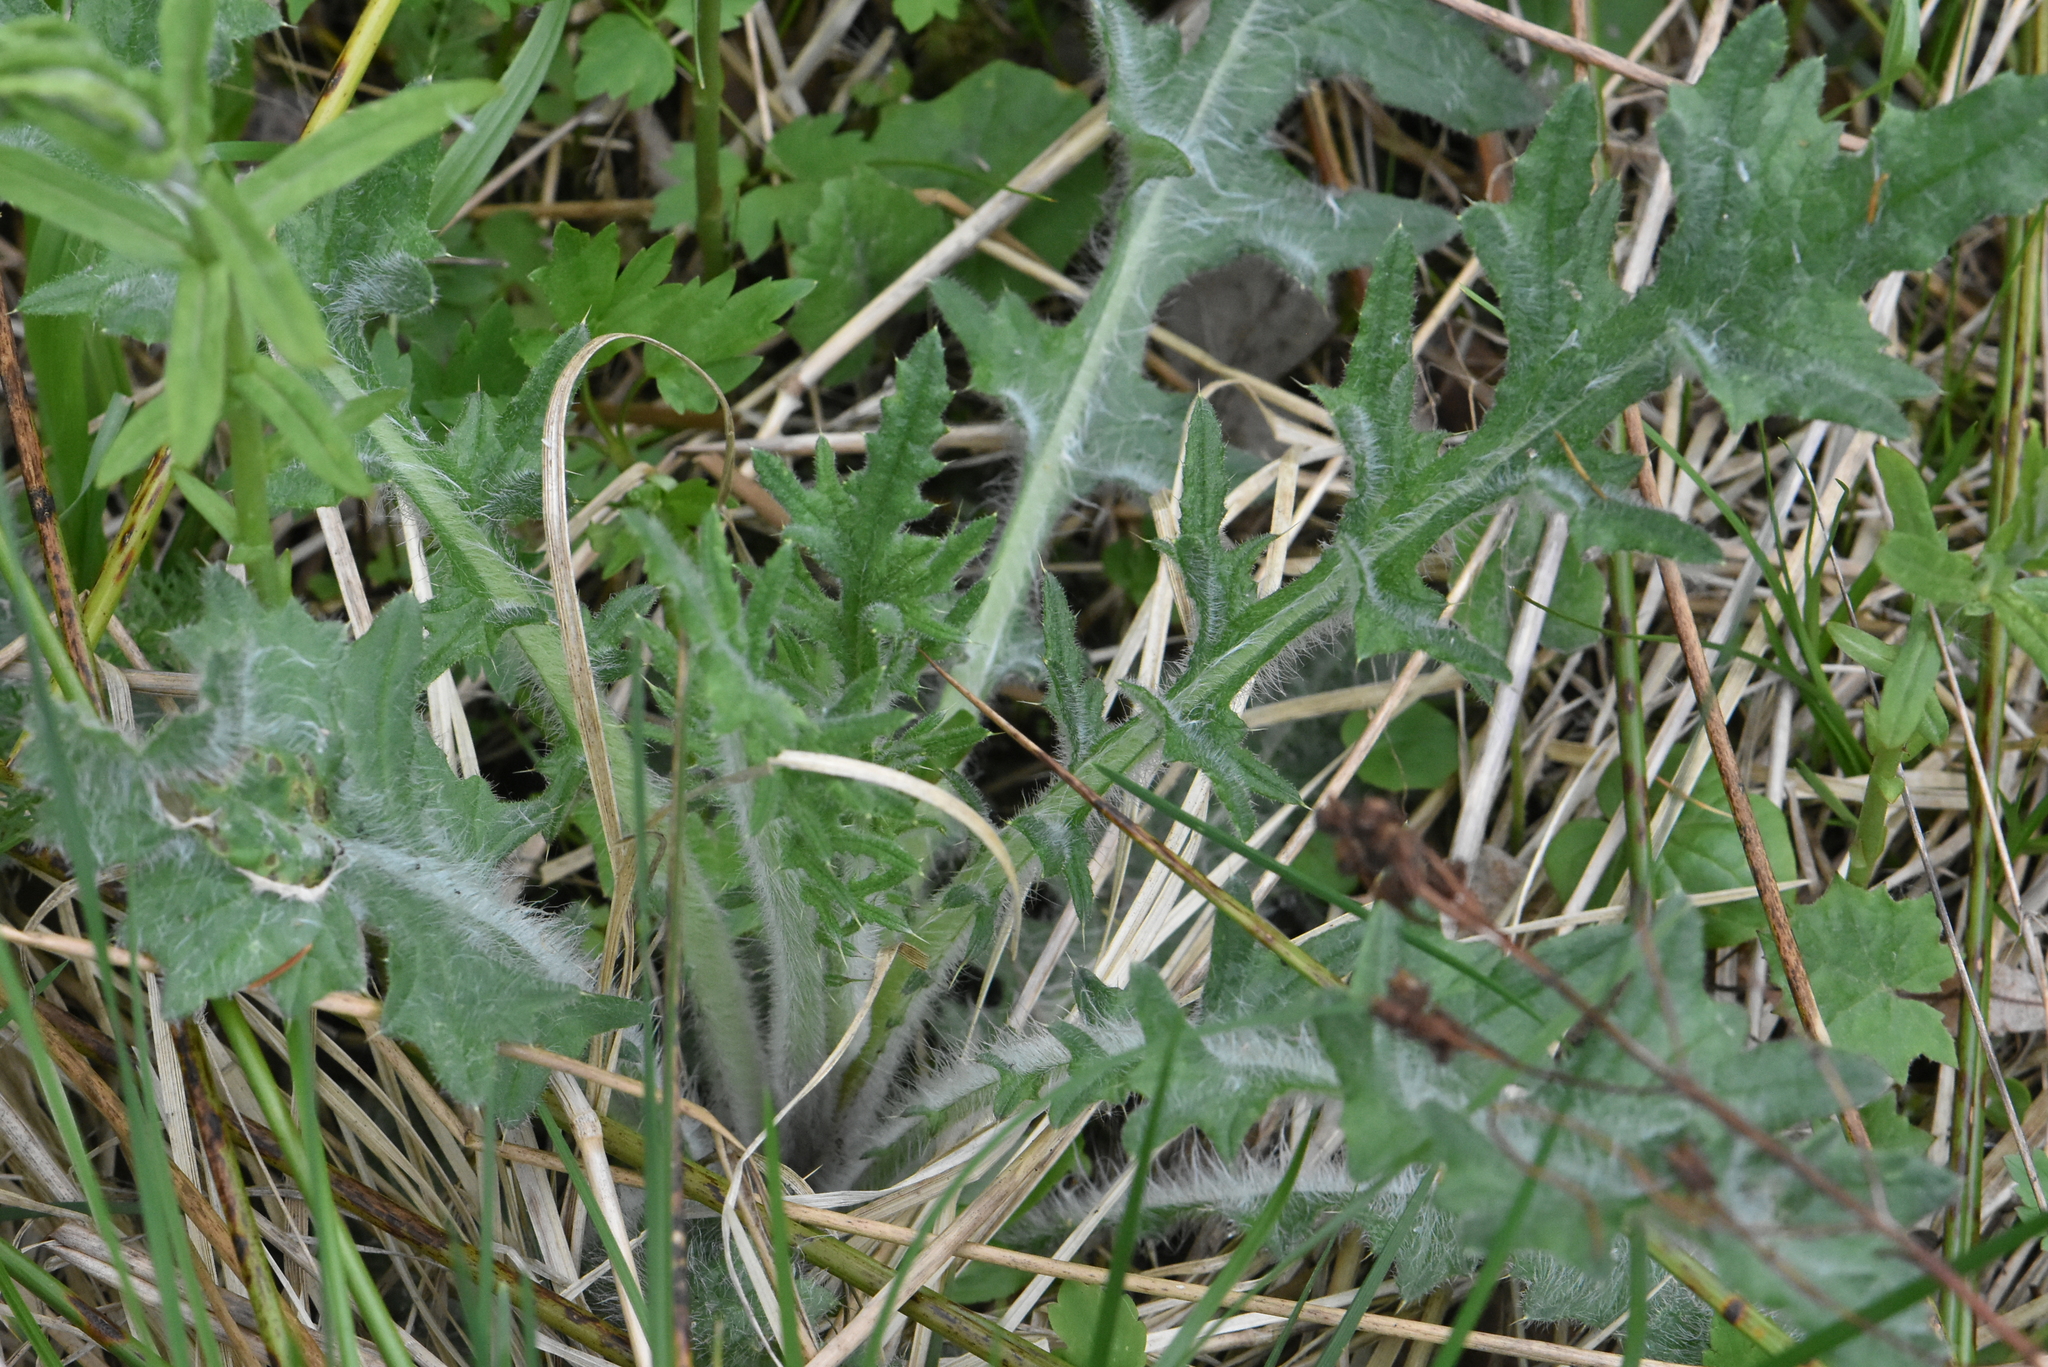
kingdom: Plantae
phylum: Tracheophyta
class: Magnoliopsida
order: Asterales
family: Asteraceae
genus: Cirsium
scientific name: Cirsium vulgare
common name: Bull thistle
